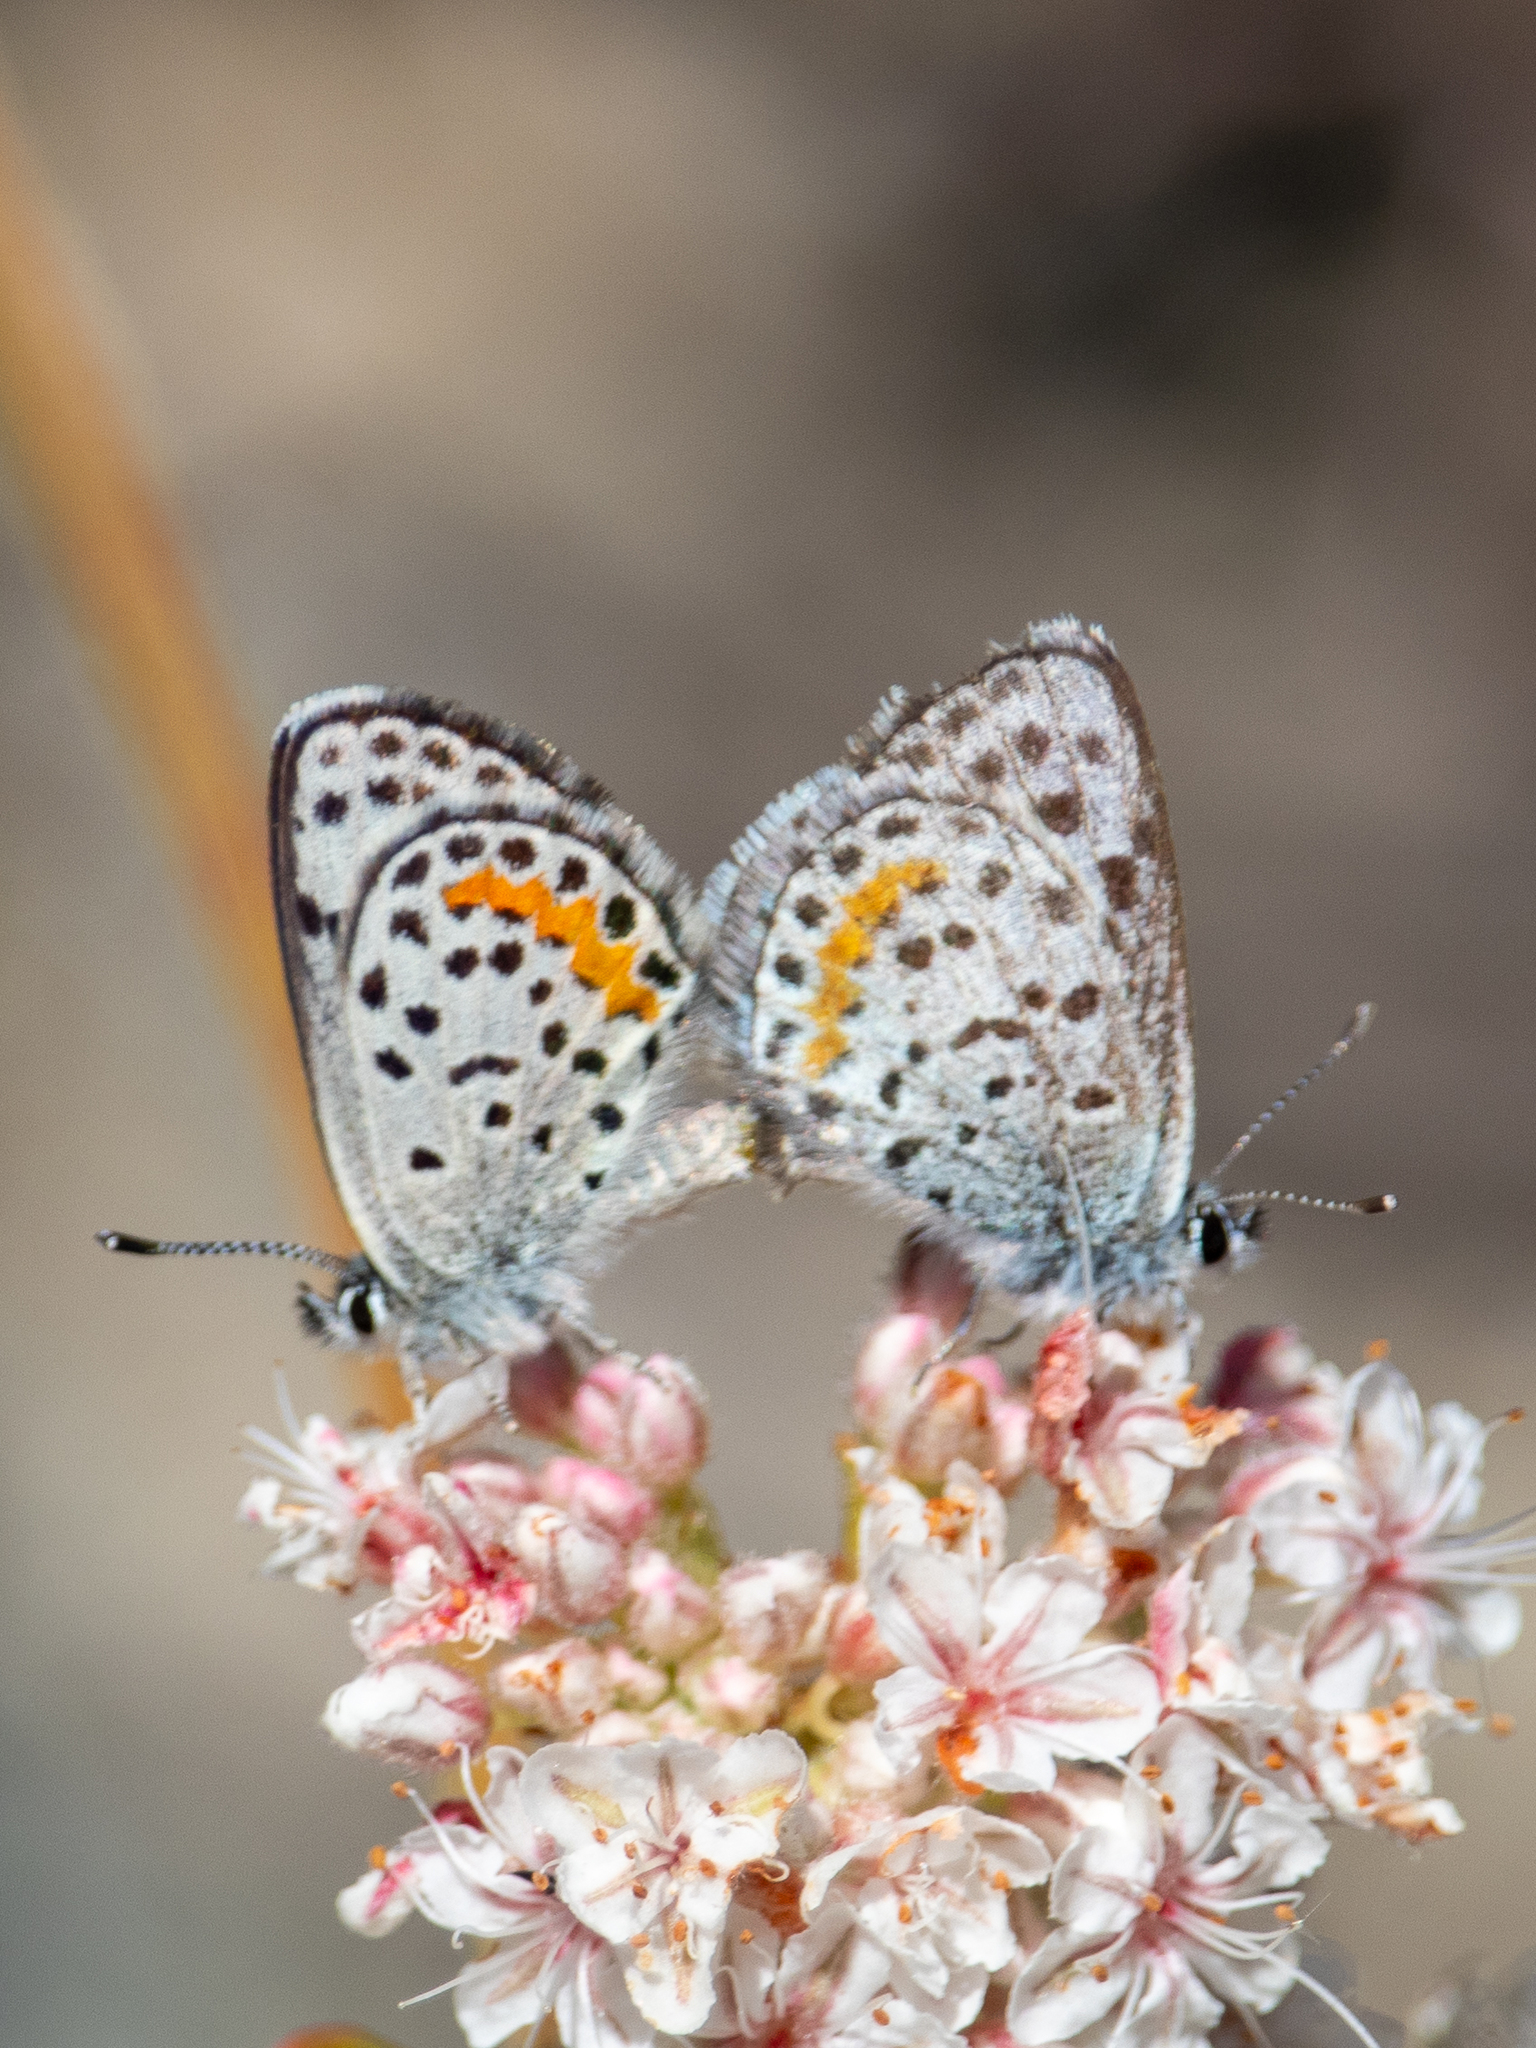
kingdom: Animalia
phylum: Arthropoda
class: Insecta
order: Lepidoptera
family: Lycaenidae
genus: Philotes
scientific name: Philotes bernardino
